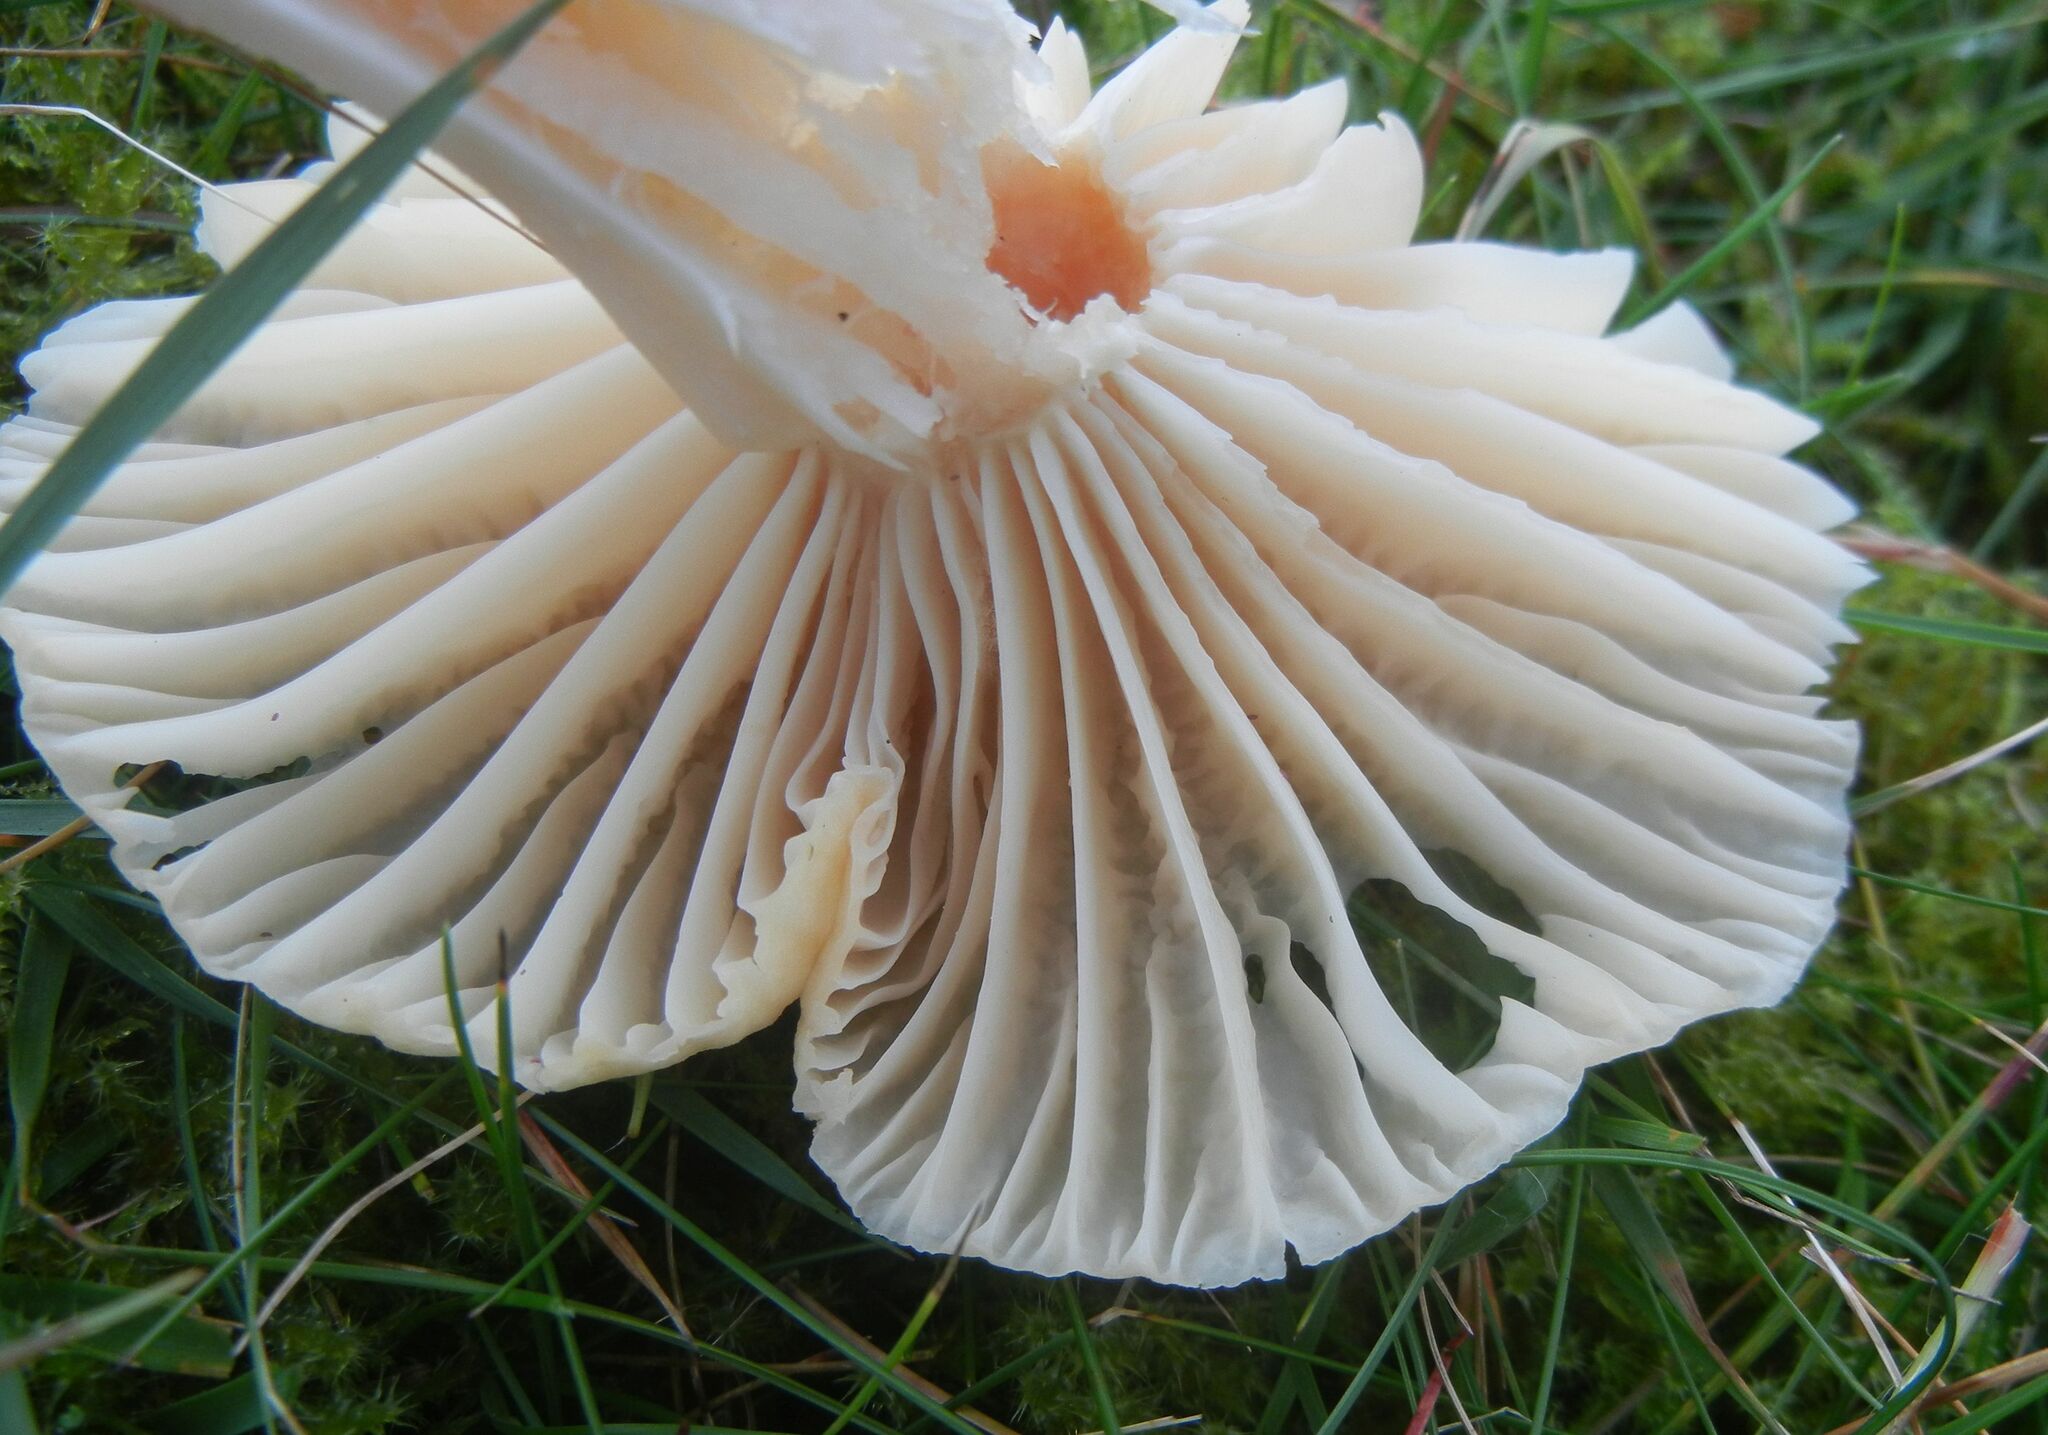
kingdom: Fungi
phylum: Basidiomycota
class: Agaricomycetes
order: Agaricales
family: Hygrophoraceae
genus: Cuphophyllus
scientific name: Cuphophyllus pratensis
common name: Meadow waxcap
